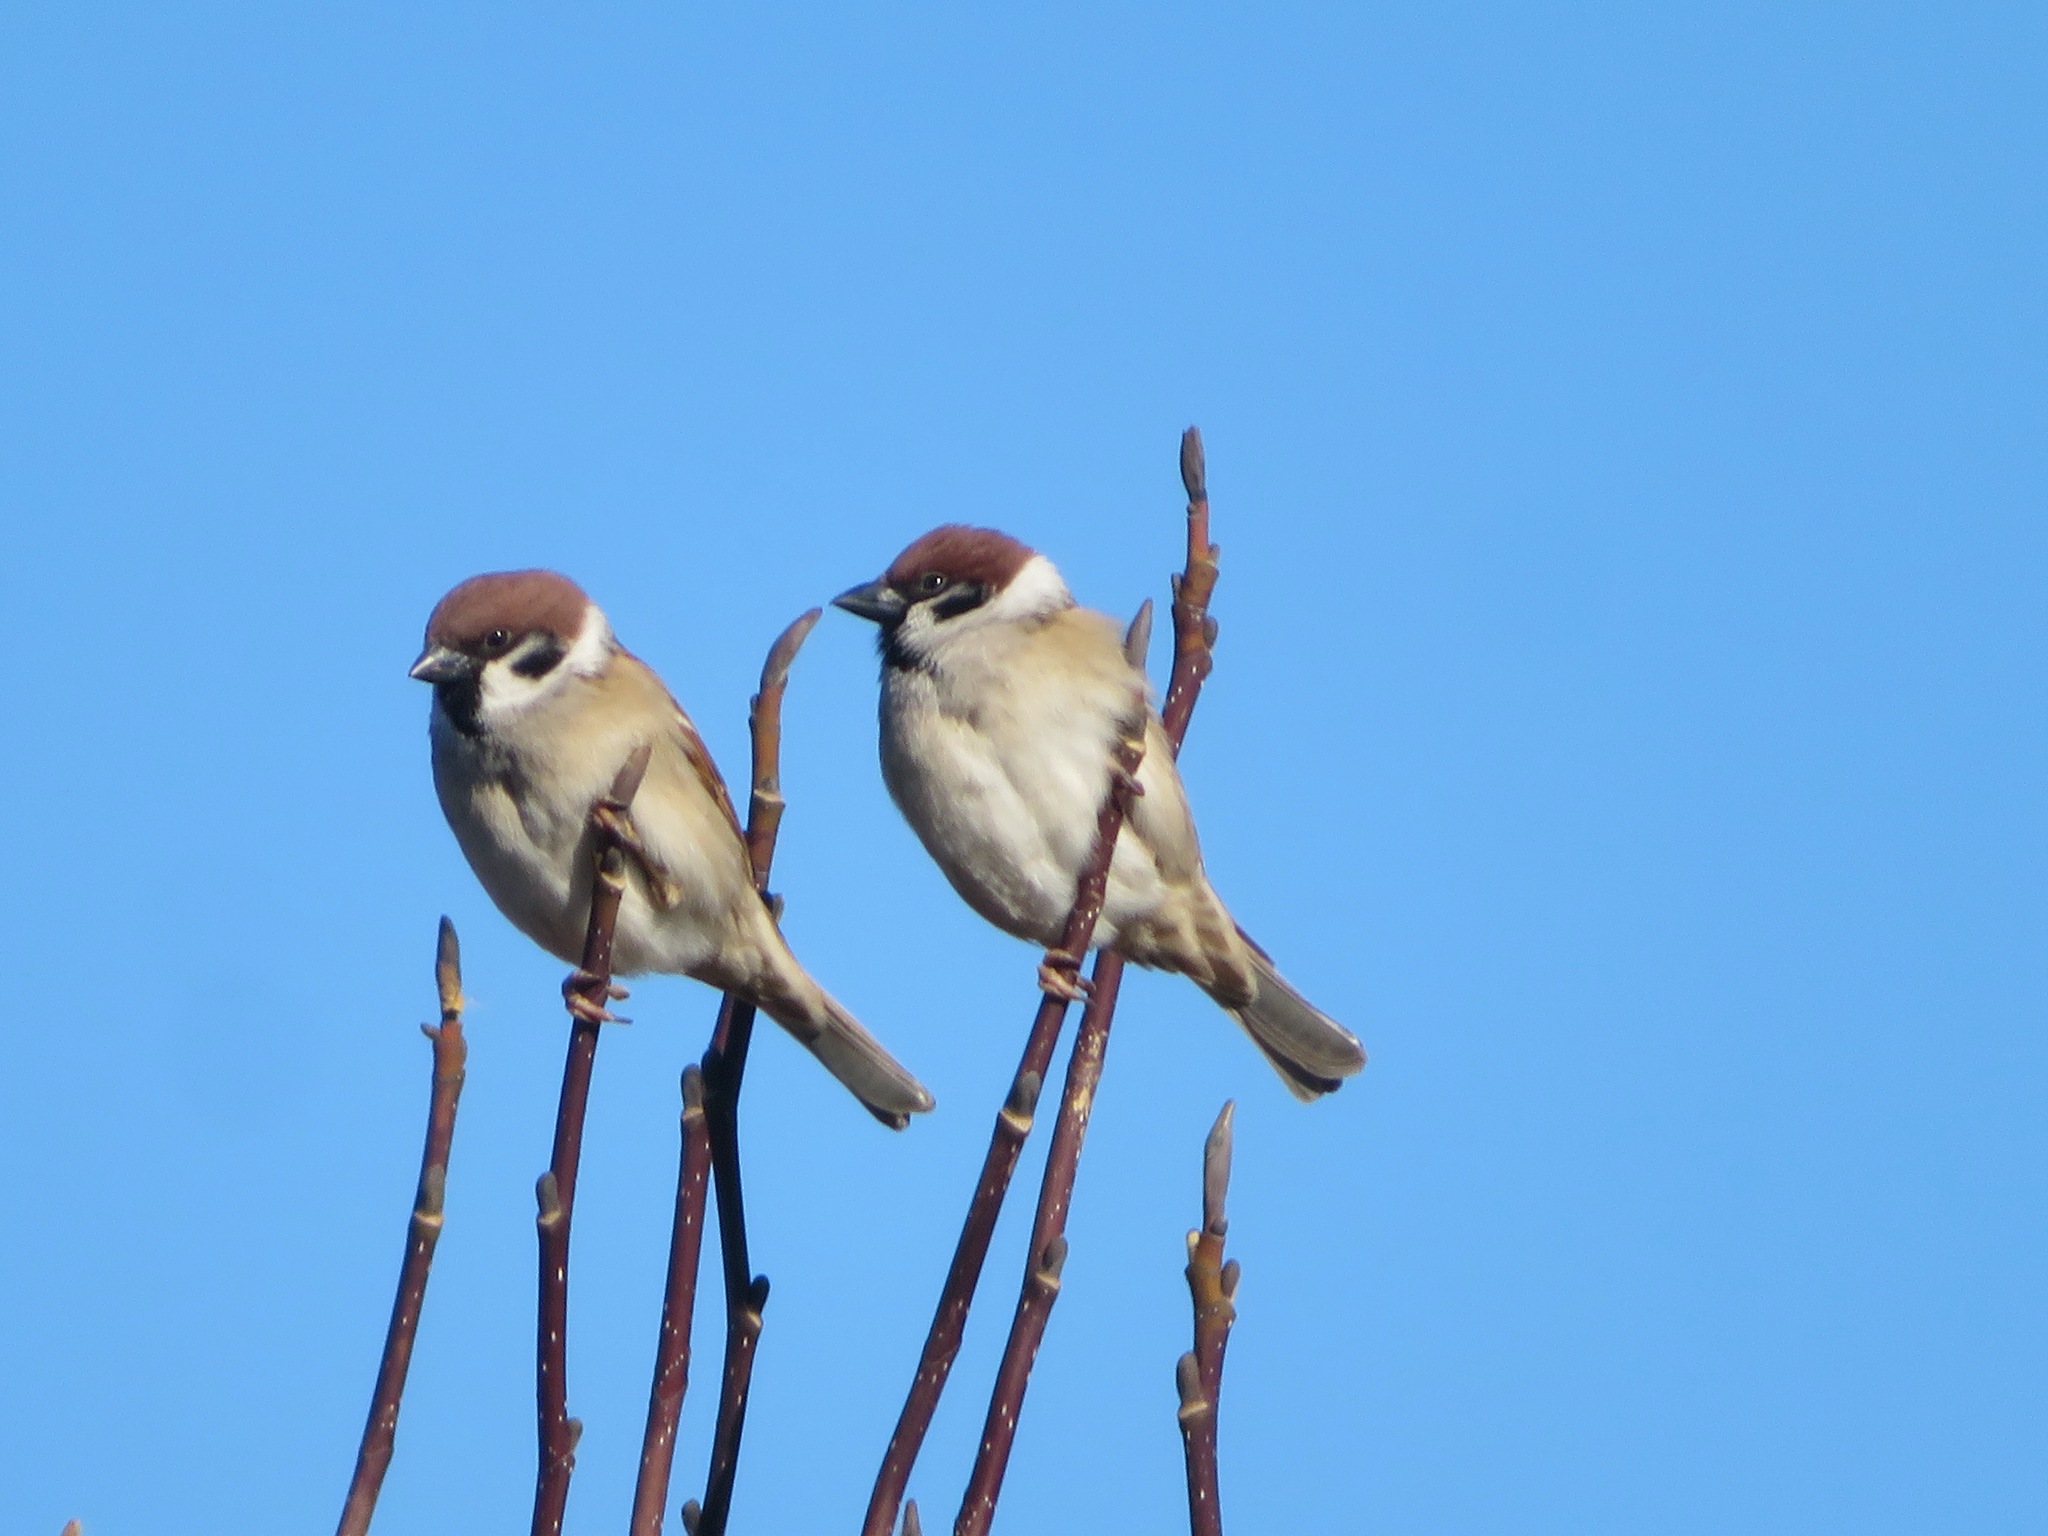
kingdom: Animalia
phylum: Chordata
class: Aves
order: Passeriformes
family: Passeridae
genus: Passer
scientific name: Passer montanus
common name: Eurasian tree sparrow
